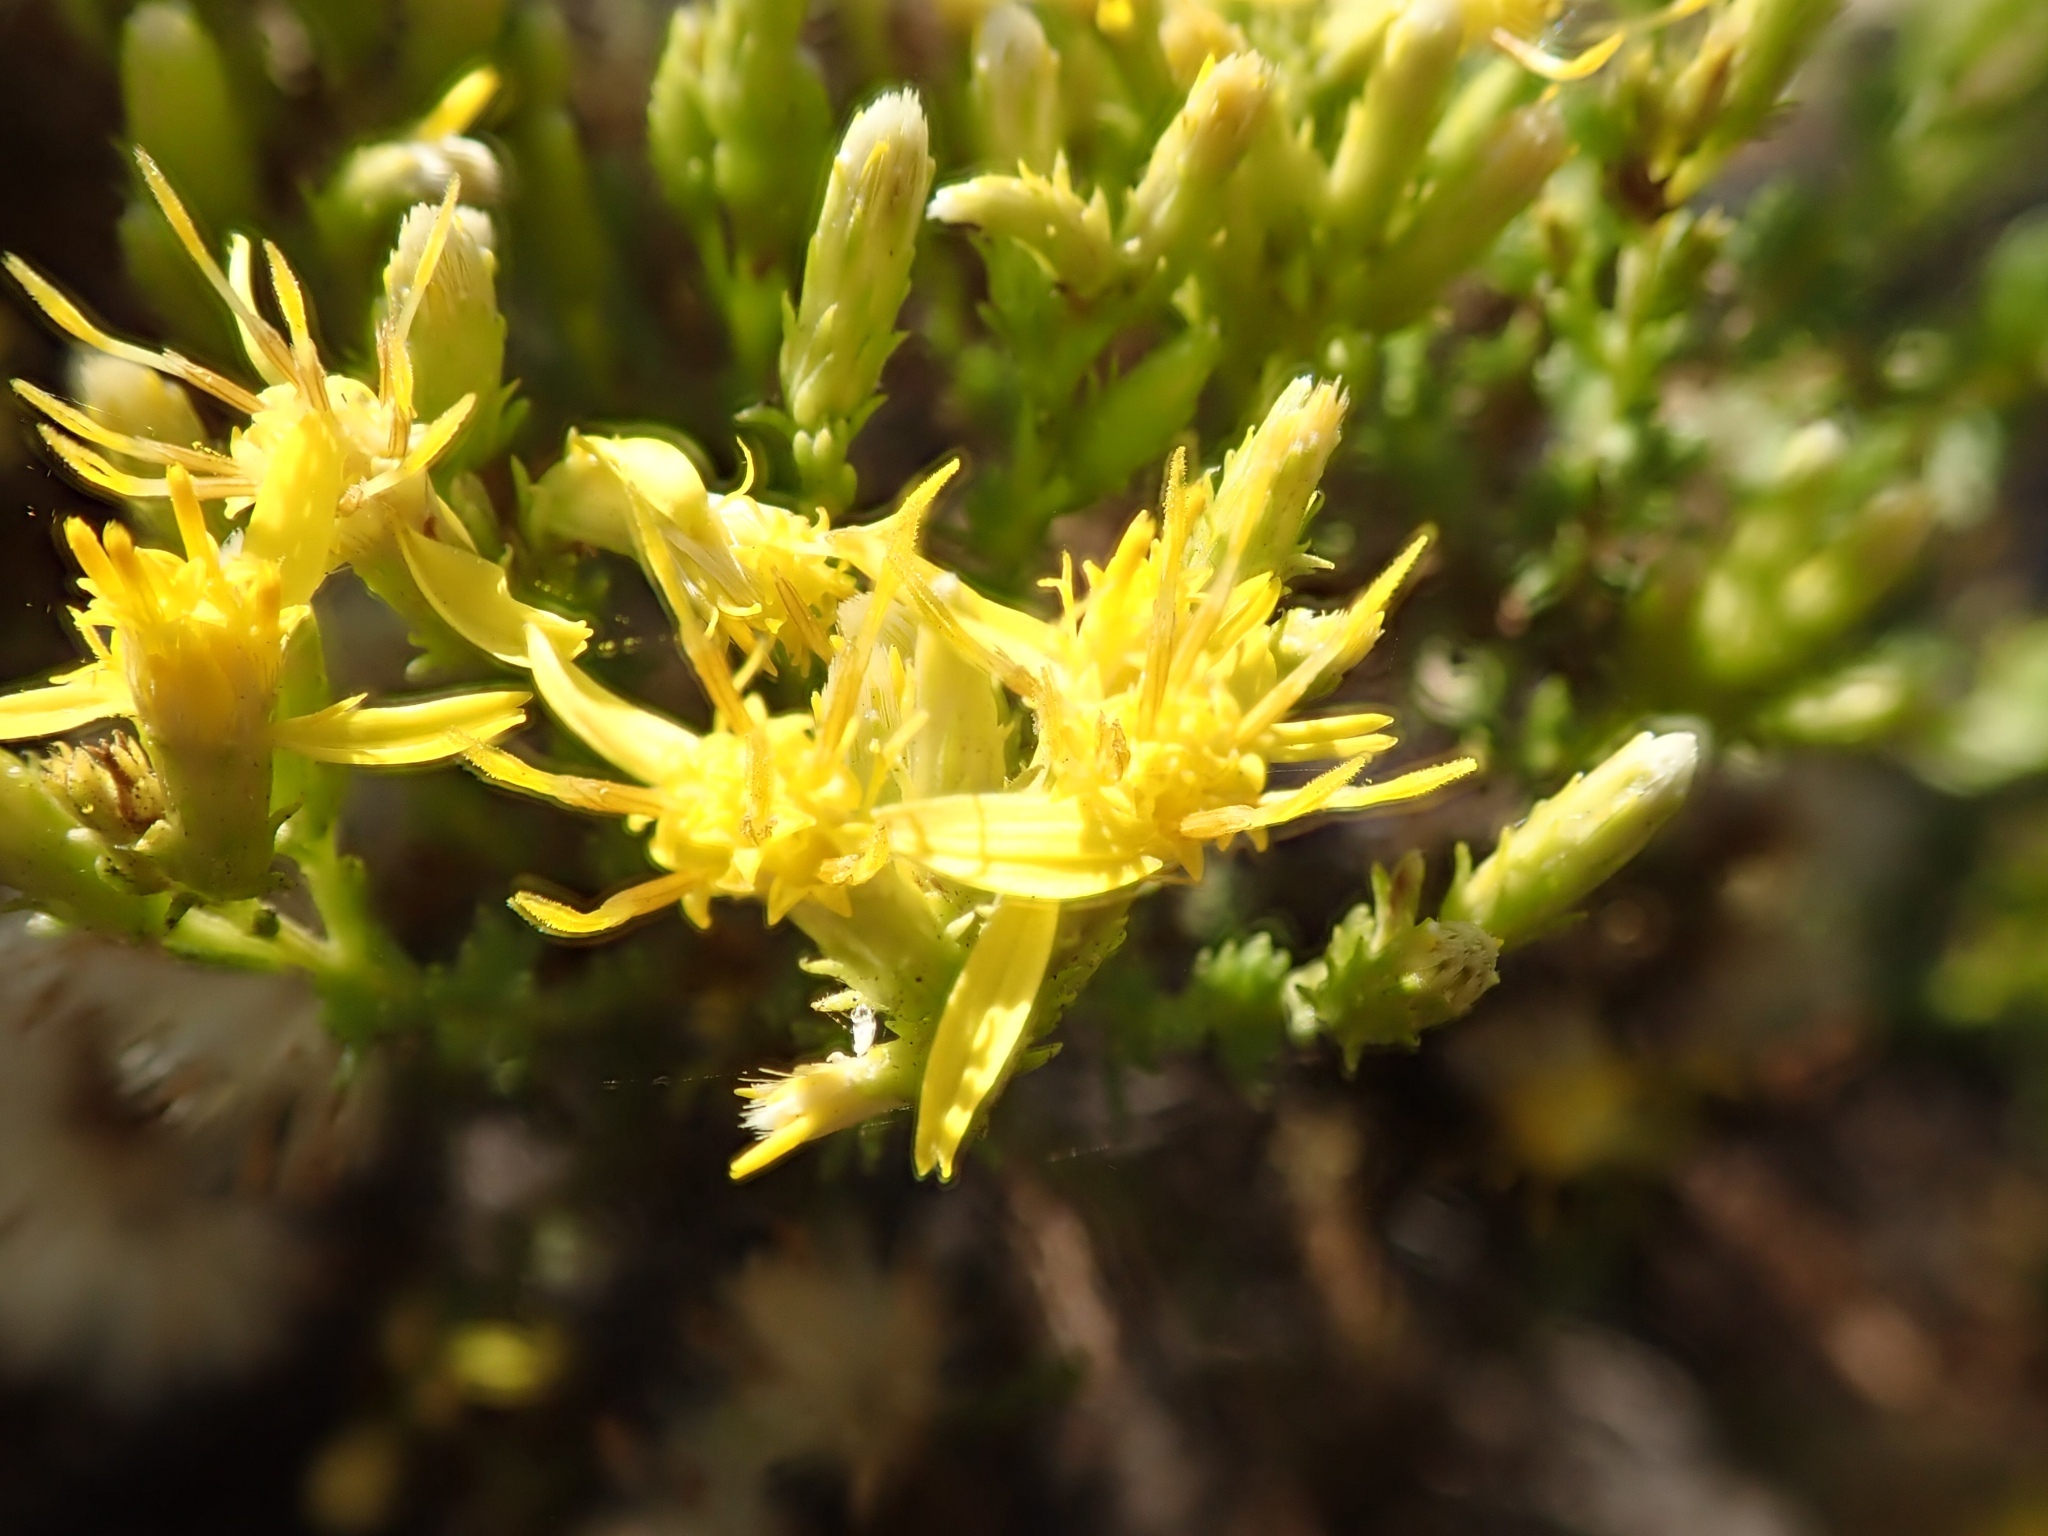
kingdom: Plantae
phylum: Tracheophyta
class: Magnoliopsida
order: Asterales
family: Asteraceae
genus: Ericameria
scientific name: Ericameria ericoides
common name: California goldenbush
